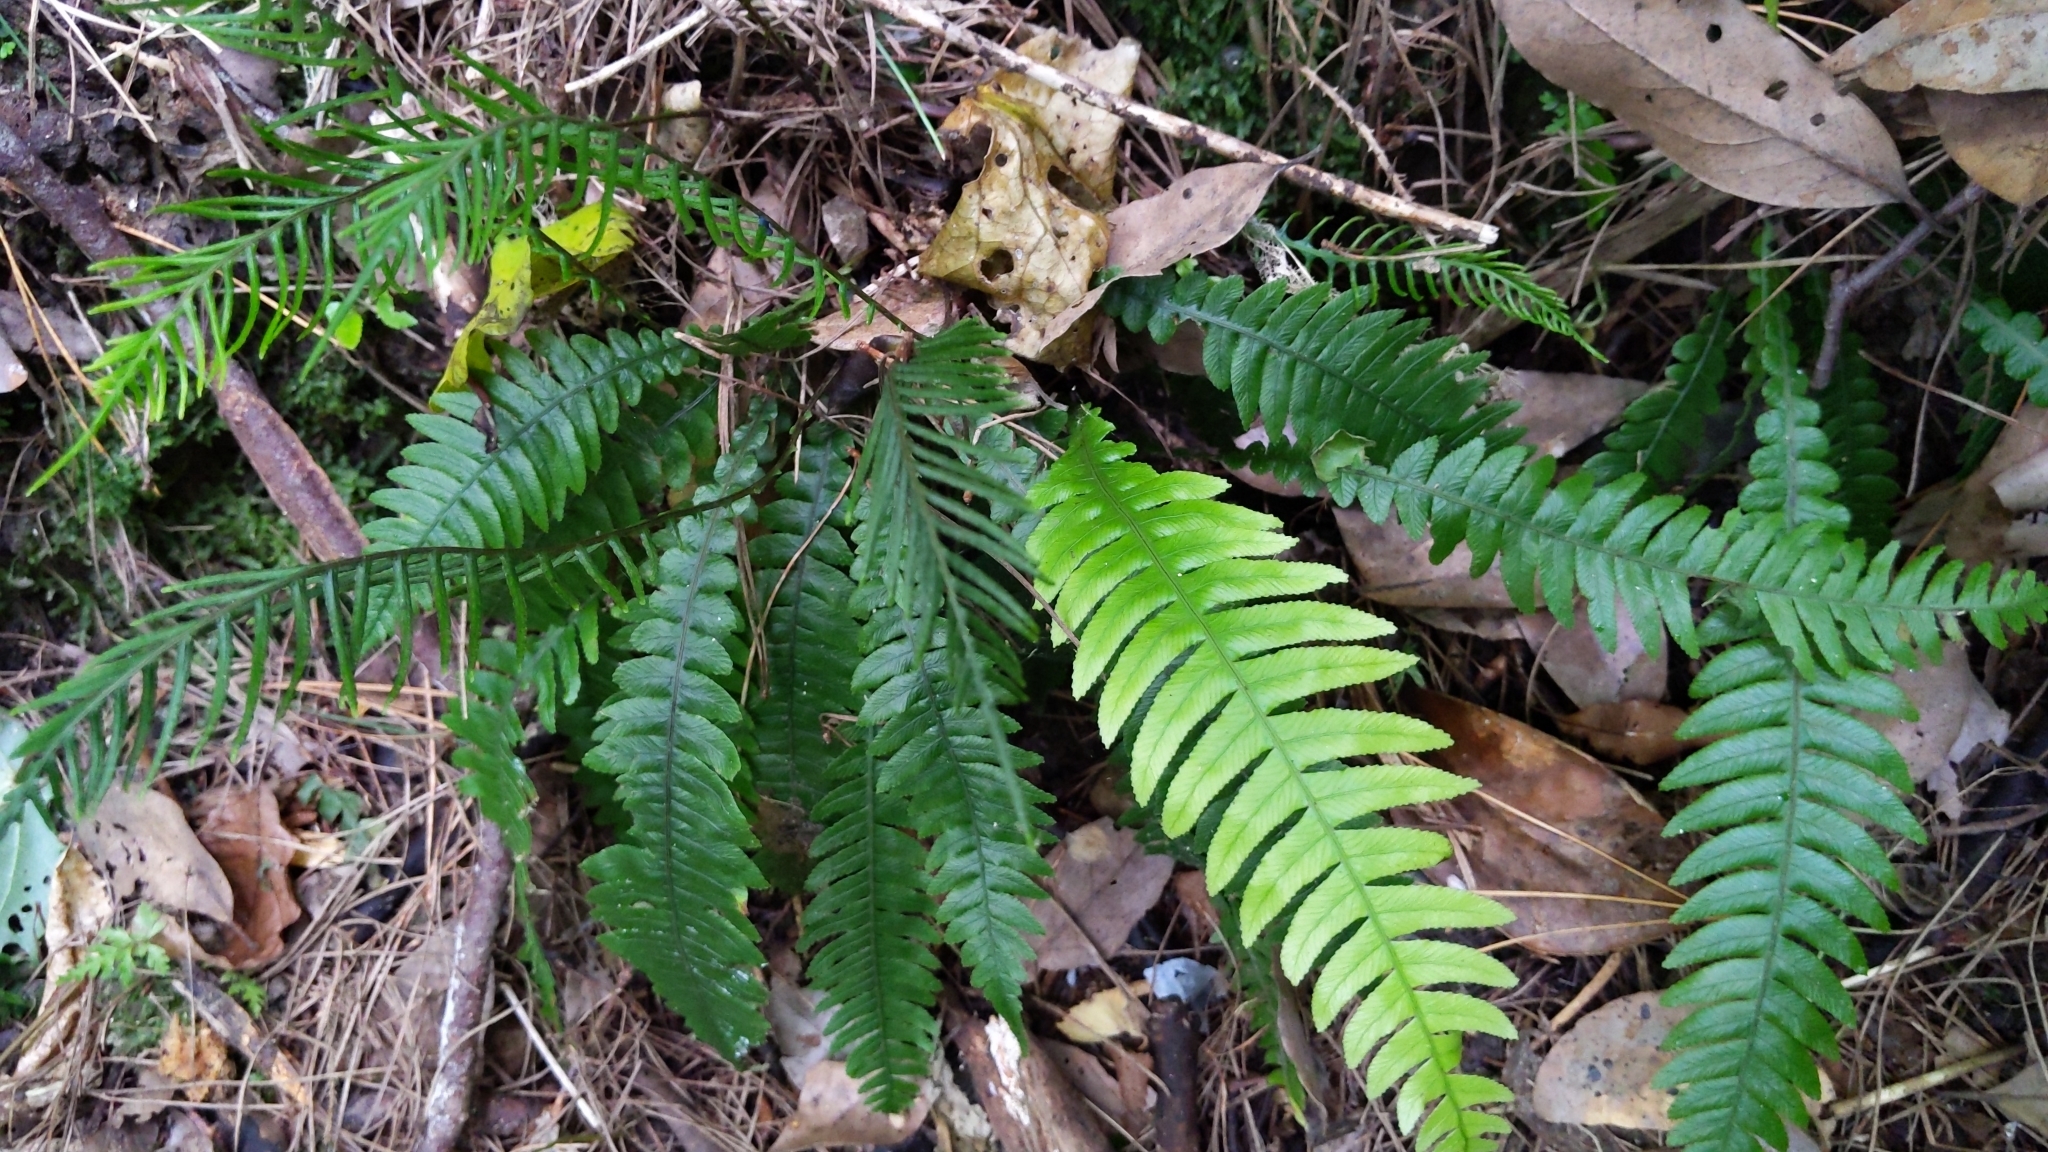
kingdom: Plantae
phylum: Tracheophyta
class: Polypodiopsida
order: Polypodiales
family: Blechnaceae
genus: Austroblechnum
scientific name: Austroblechnum lanceolatum
